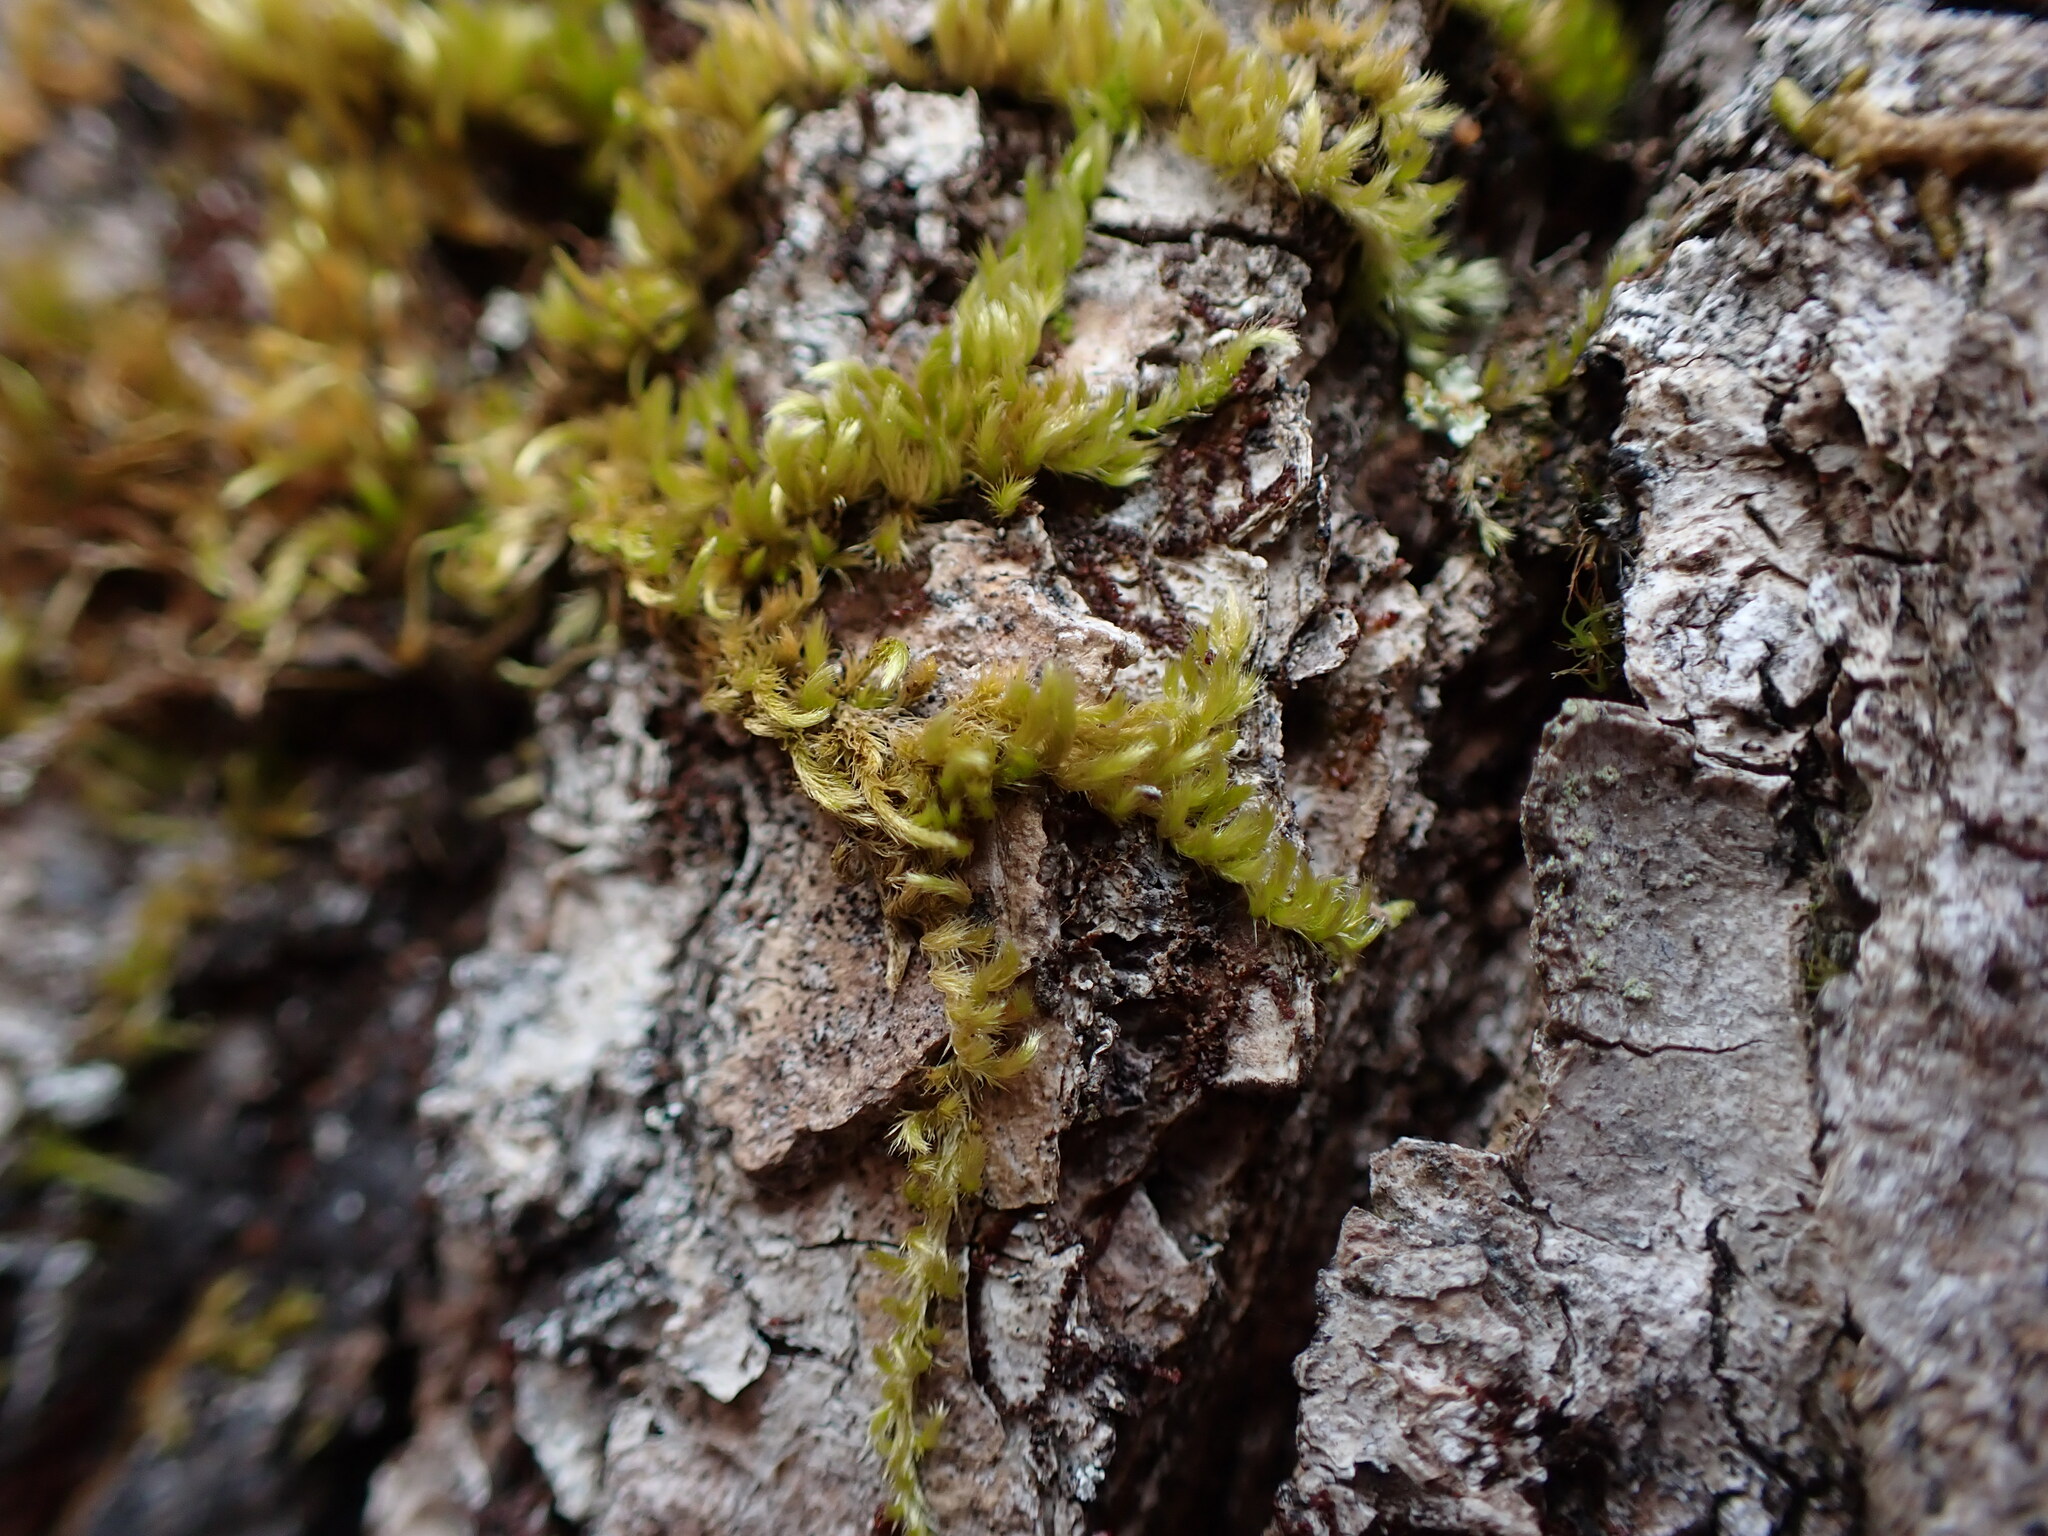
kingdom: Plantae
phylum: Bryophyta
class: Bryopsida
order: Hypnales
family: Brachytheciaceae
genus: Homalothecium
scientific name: Homalothecium nuttallii
